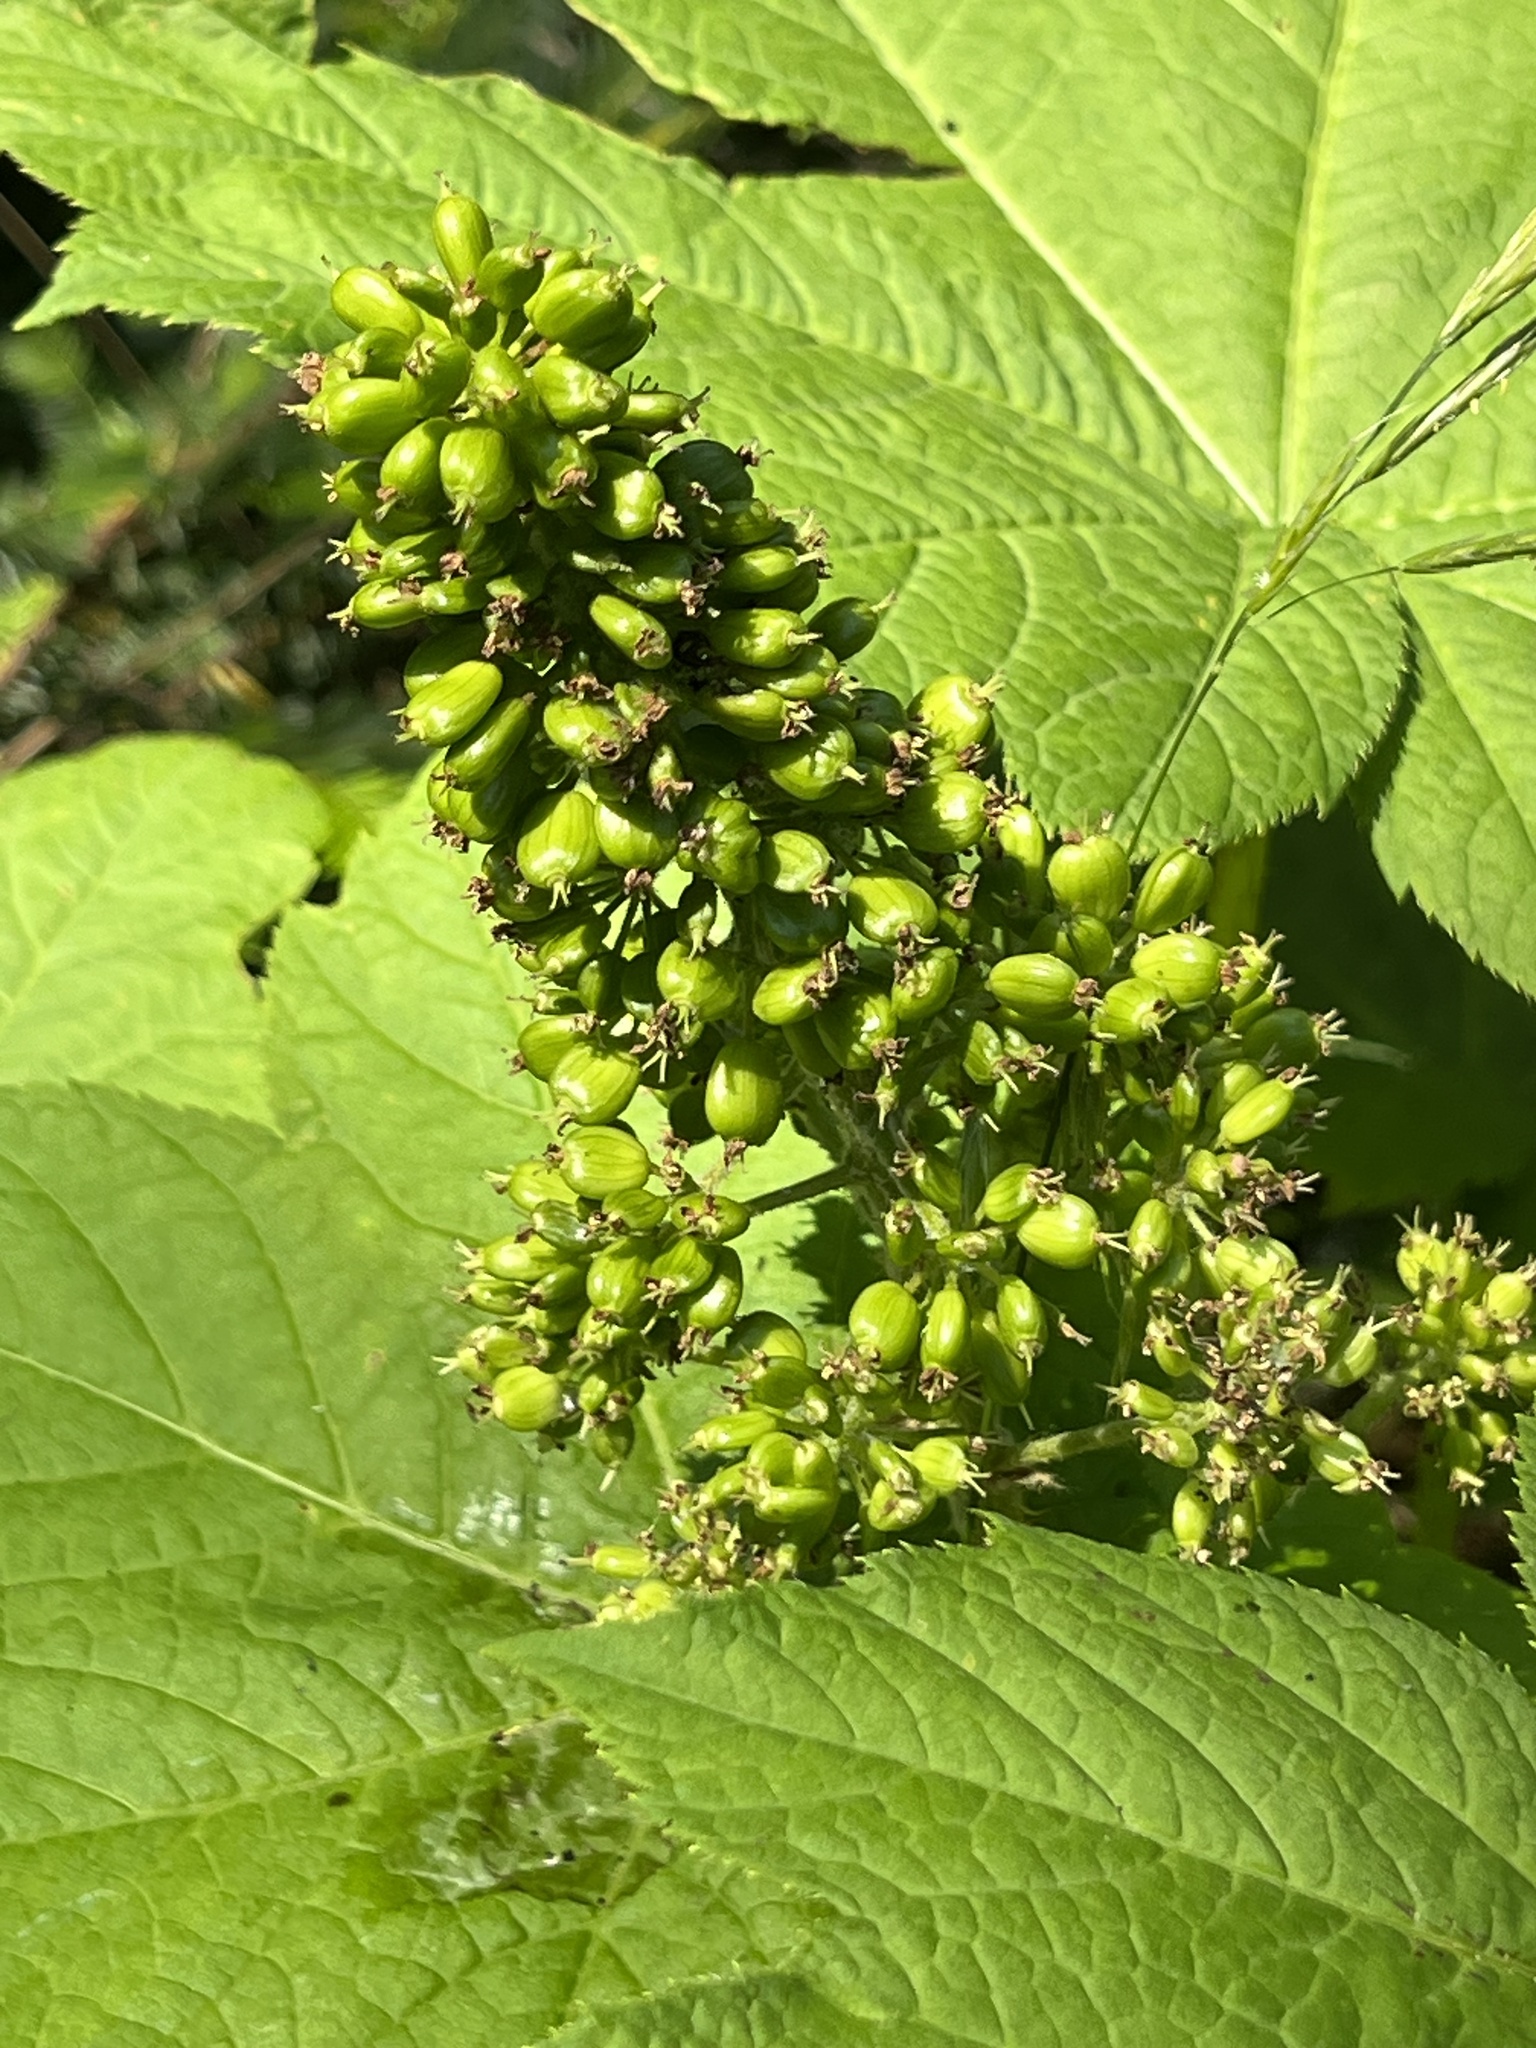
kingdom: Plantae
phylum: Tracheophyta
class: Magnoliopsida
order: Apiales
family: Araliaceae
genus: Oplopanax
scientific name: Oplopanax horridus
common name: Devil's walking-stick
